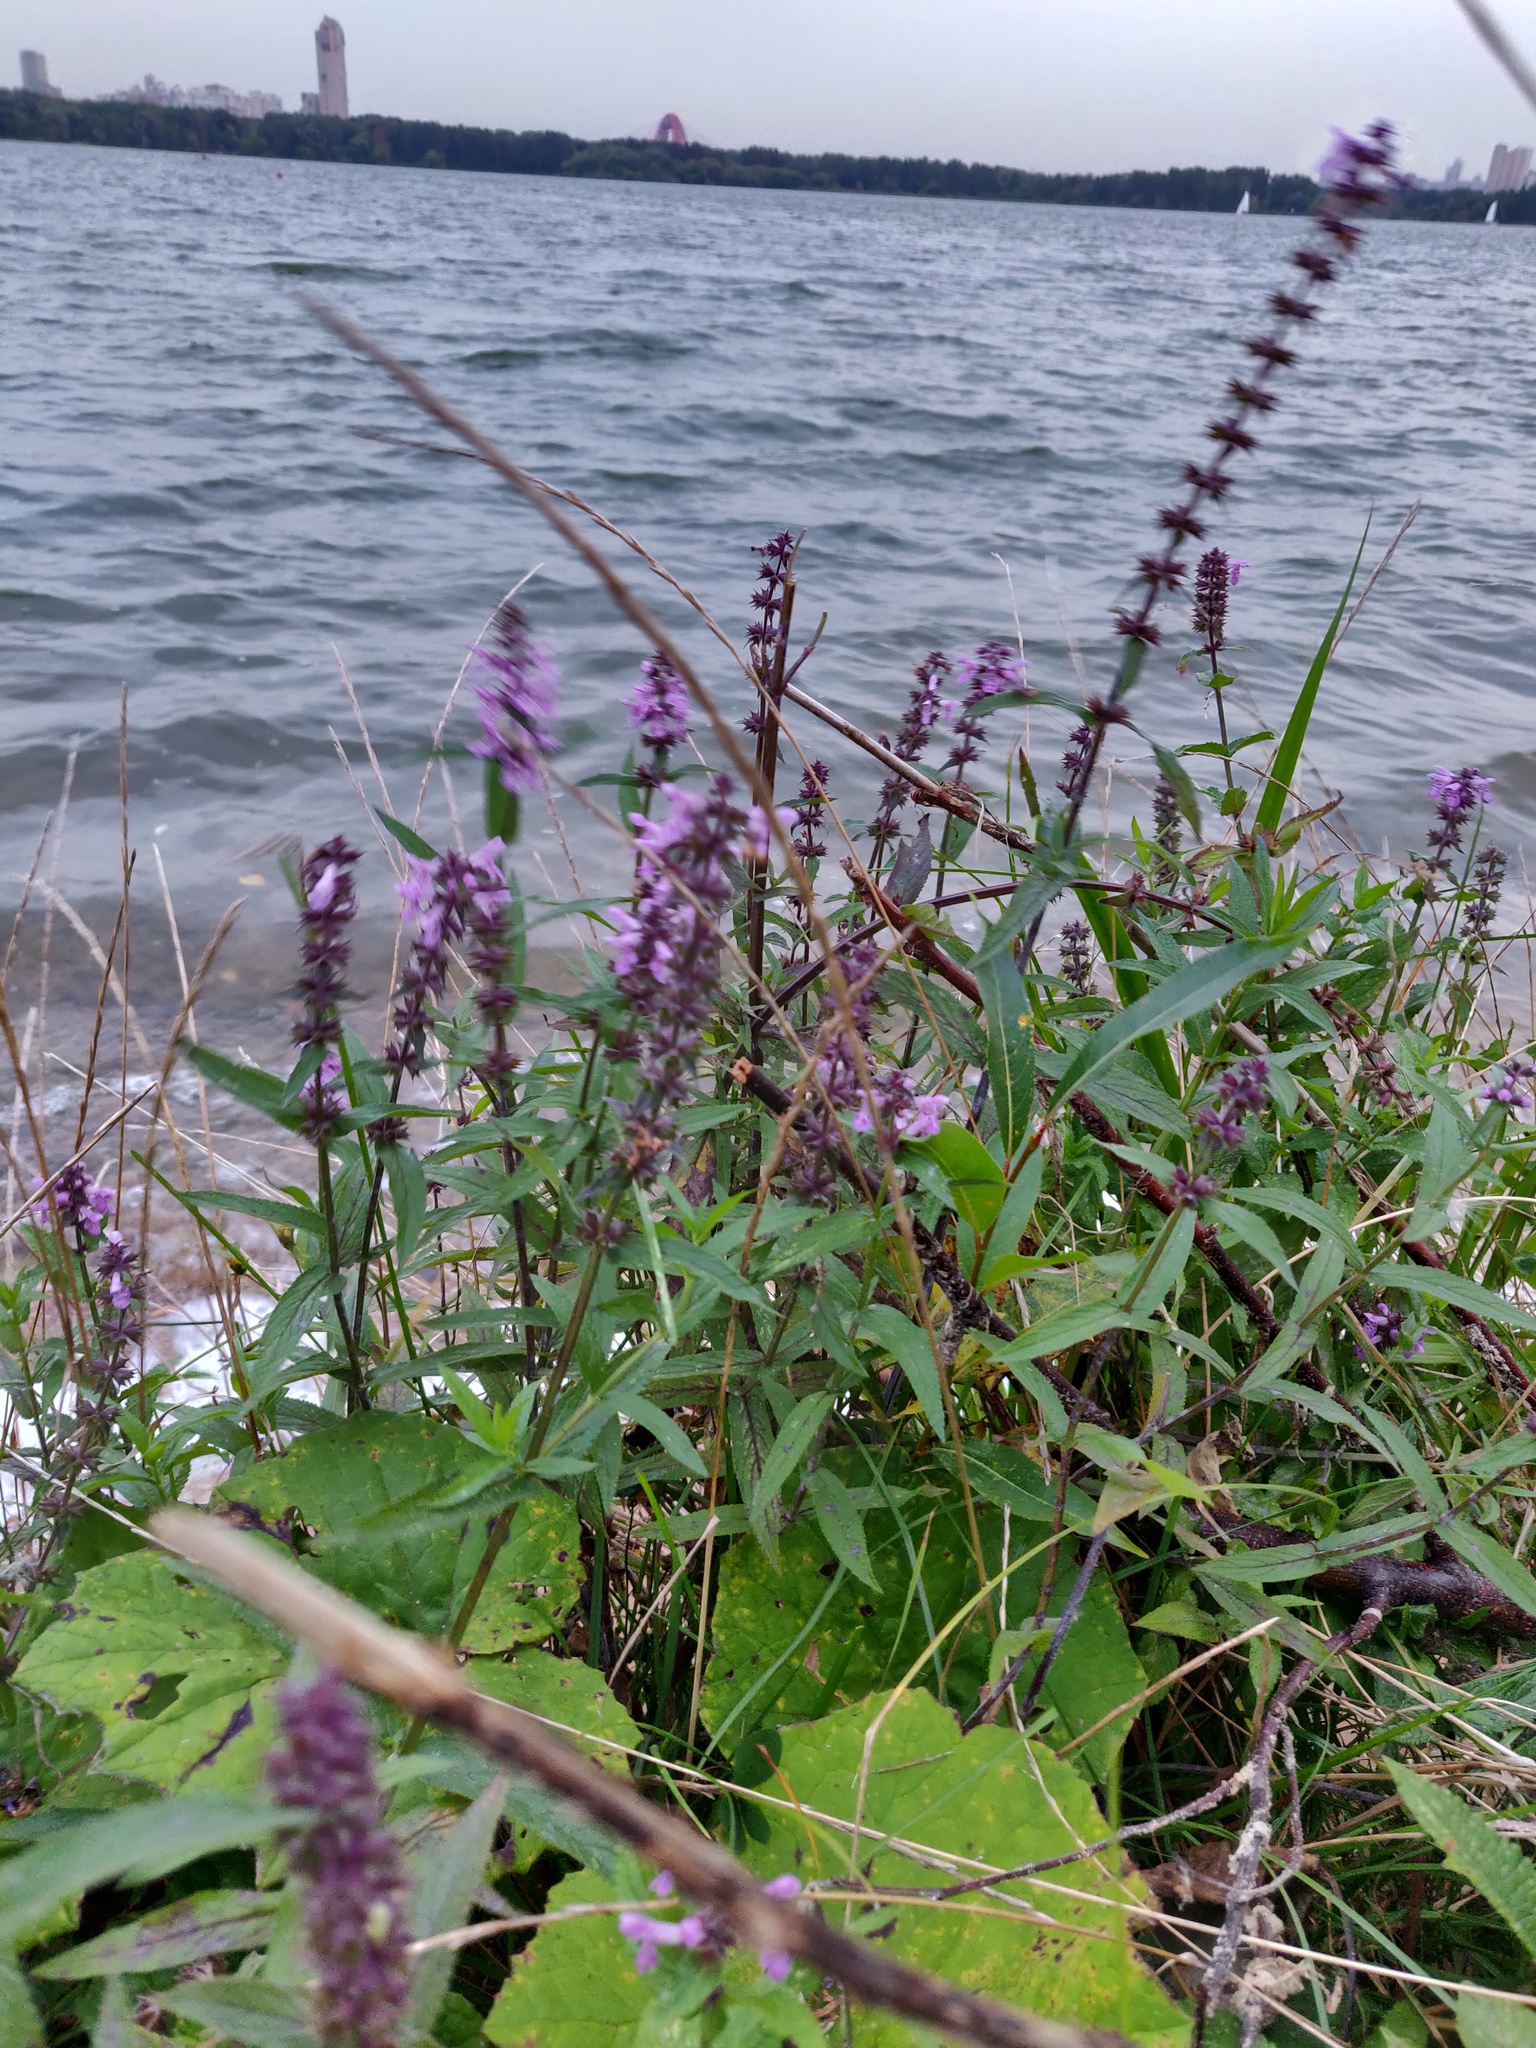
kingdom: Plantae
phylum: Tracheophyta
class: Magnoliopsida
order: Lamiales
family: Lamiaceae
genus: Stachys
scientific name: Stachys palustris
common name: Marsh woundwort
